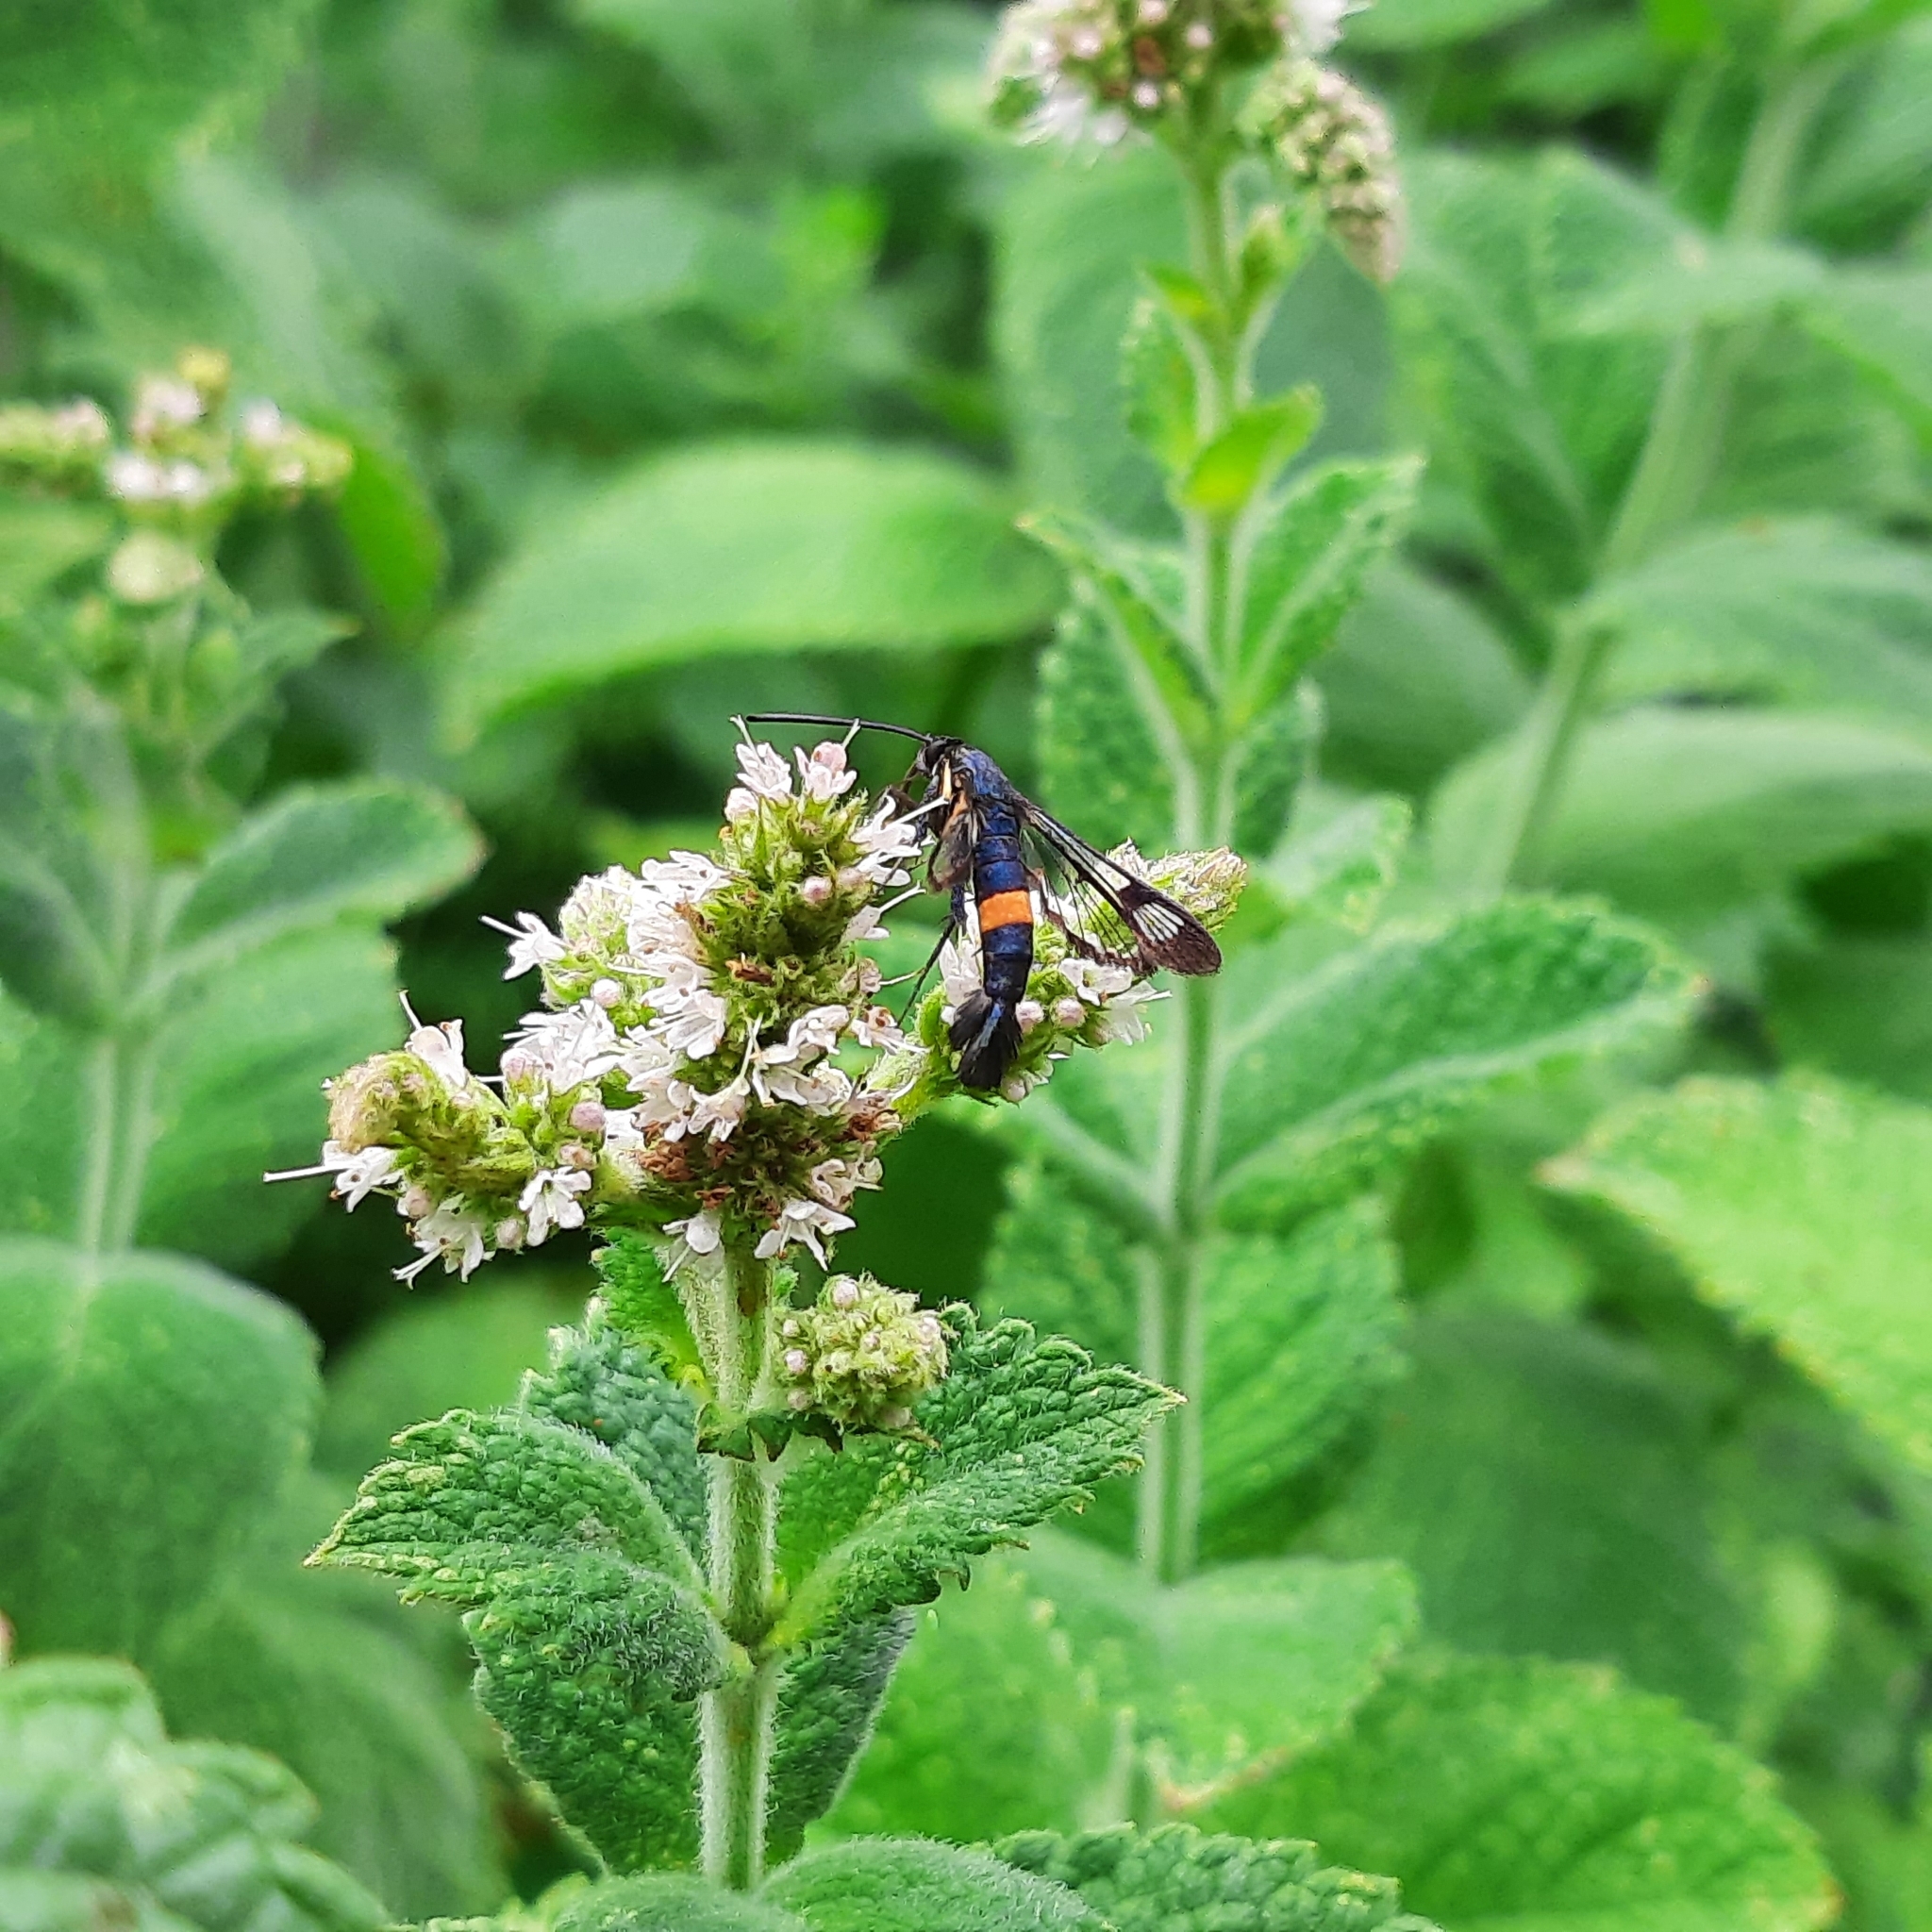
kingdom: Animalia
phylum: Arthropoda
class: Insecta
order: Lepidoptera
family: Sesiidae
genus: Synanthedon
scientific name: Synanthedon myopaeformis
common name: Red-belted clearwing
